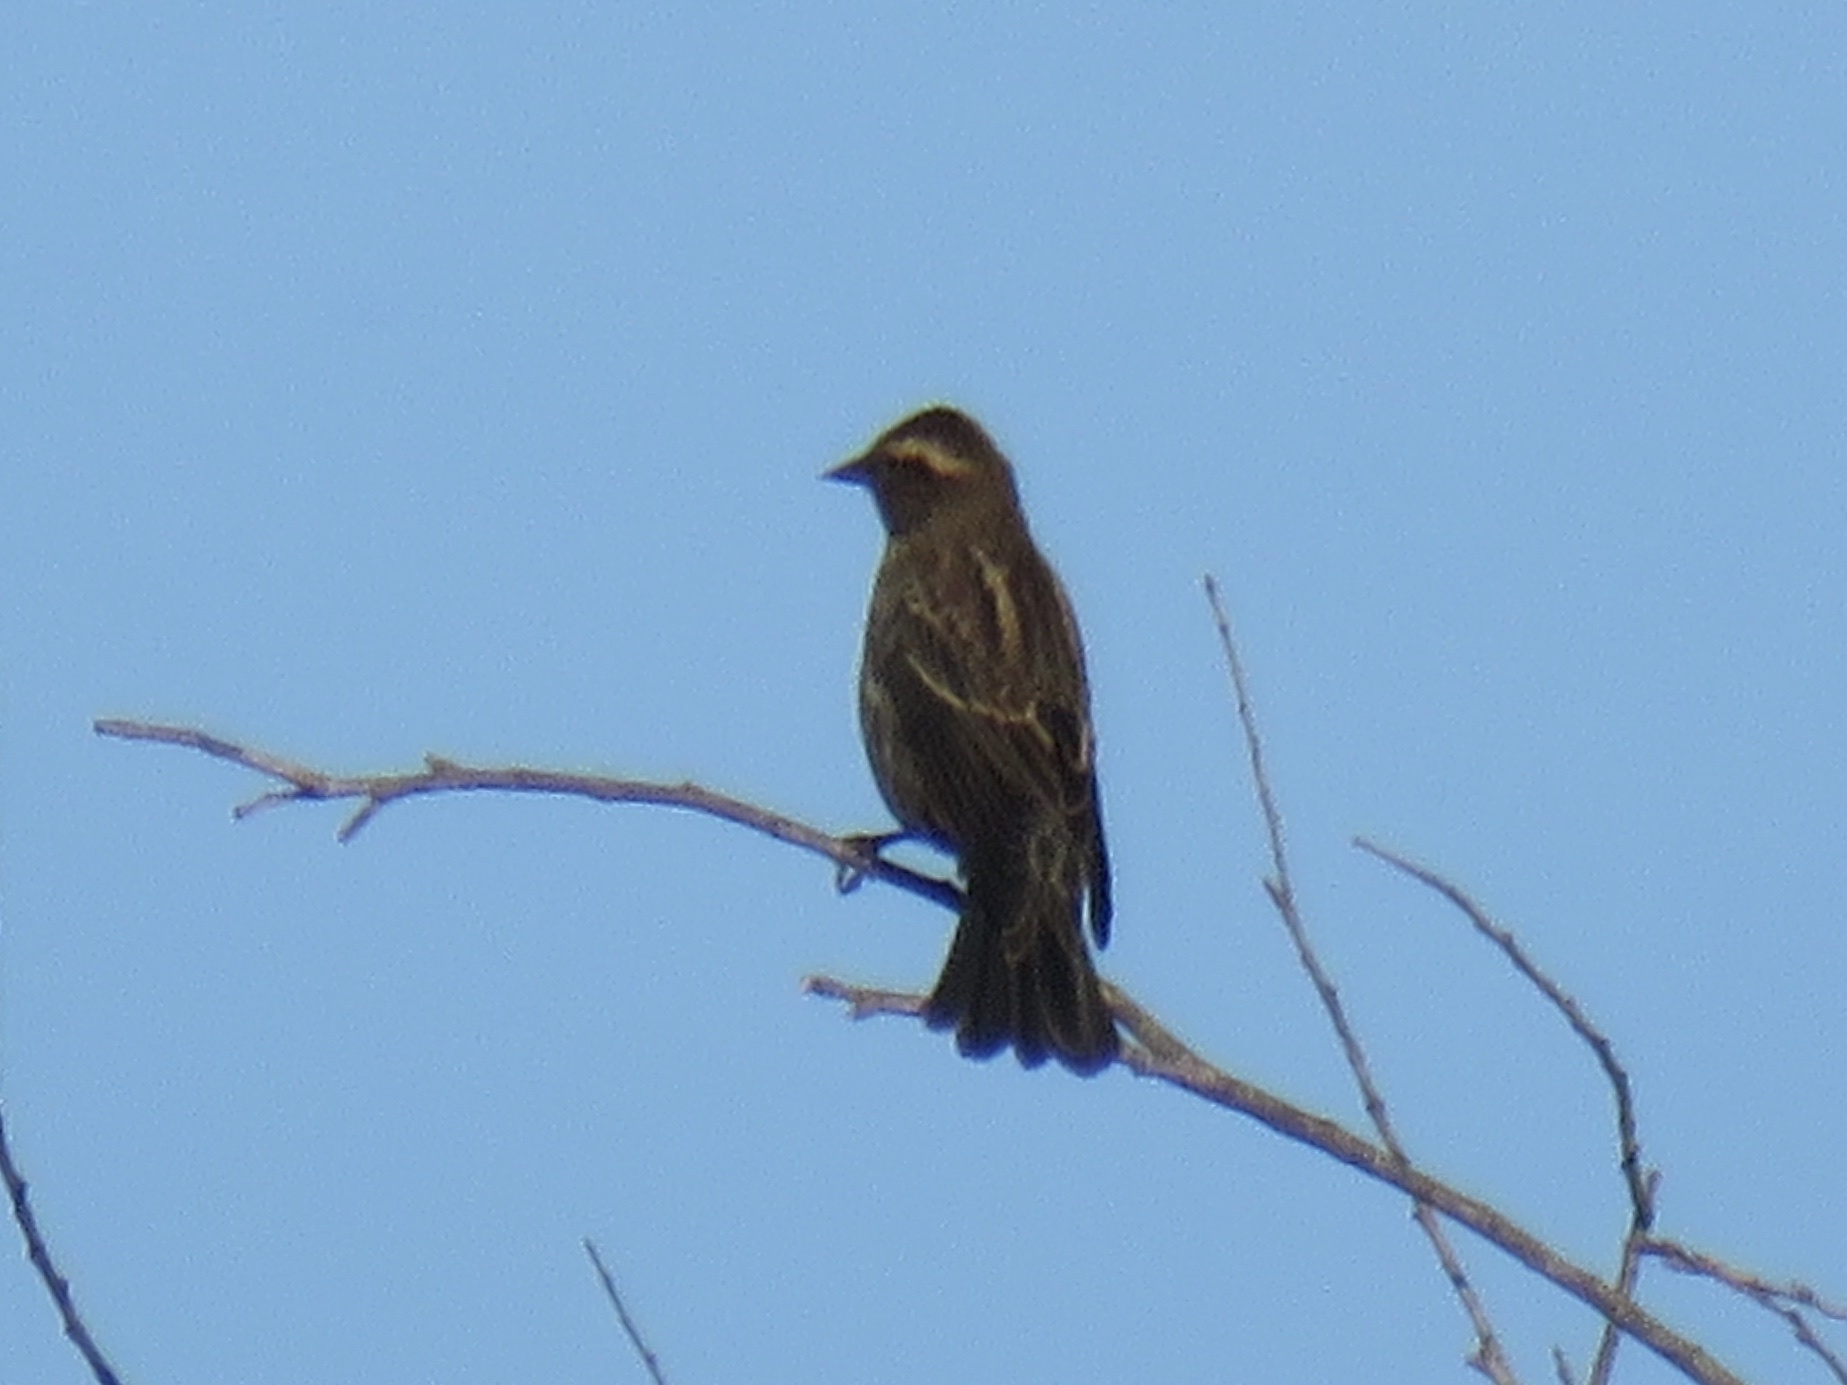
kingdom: Animalia
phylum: Chordata
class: Aves
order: Passeriformes
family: Icteridae
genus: Agelaius
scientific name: Agelaius phoeniceus
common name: Red-winged blackbird
